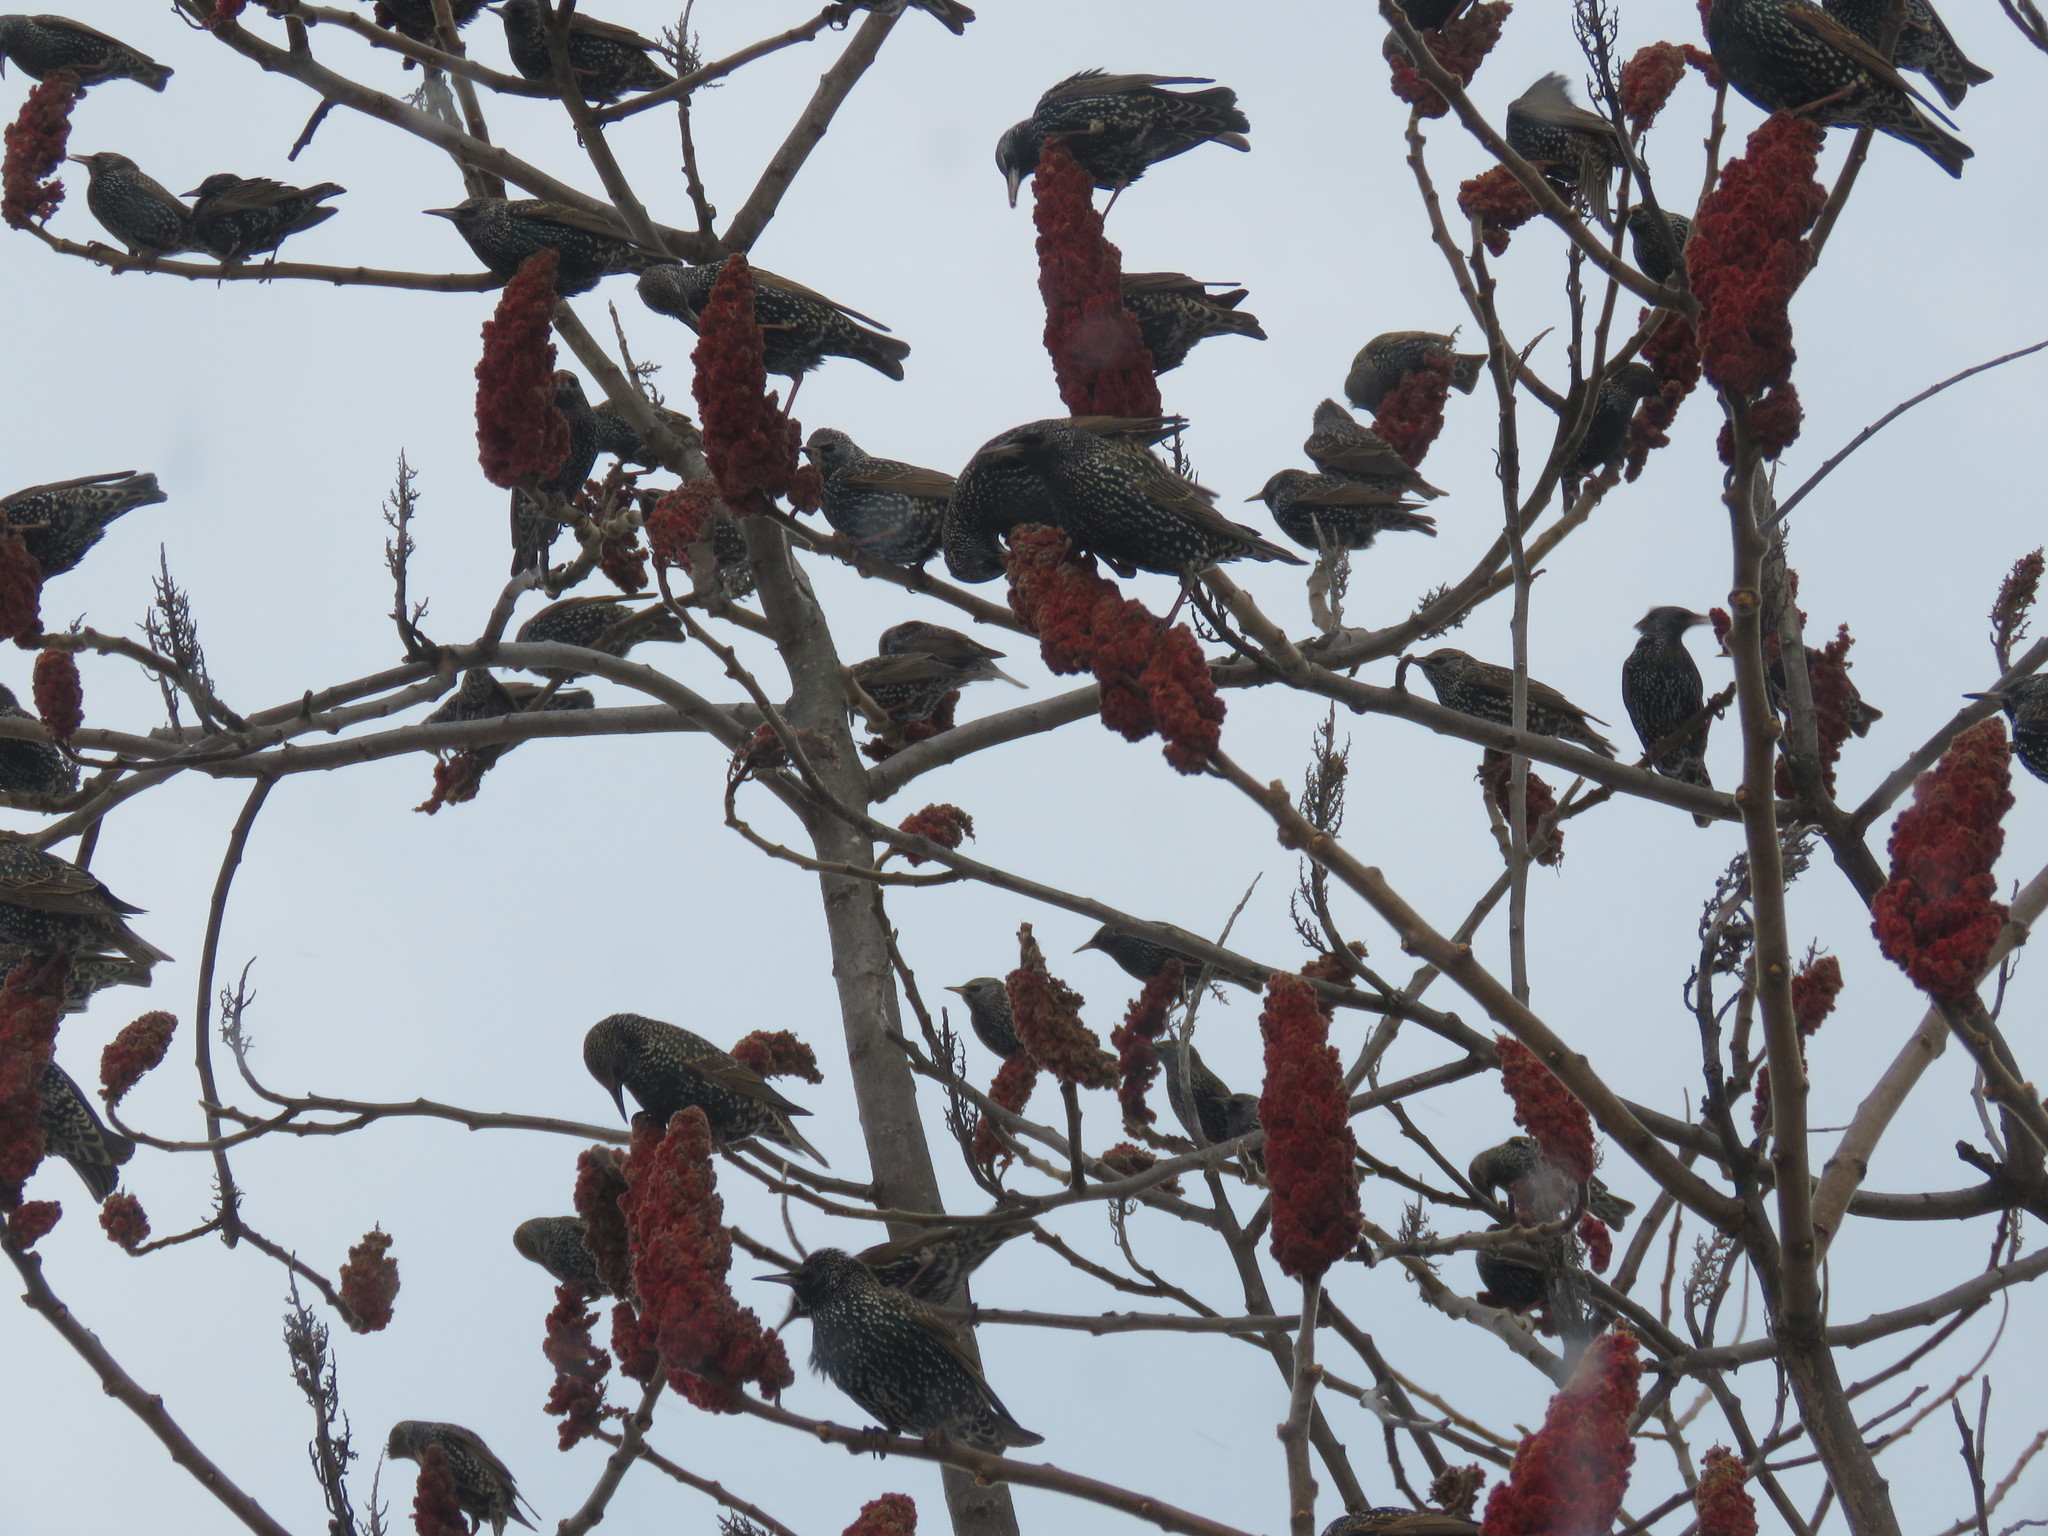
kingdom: Animalia
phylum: Chordata
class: Aves
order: Passeriformes
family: Sturnidae
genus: Sturnus
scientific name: Sturnus vulgaris
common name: Common starling
